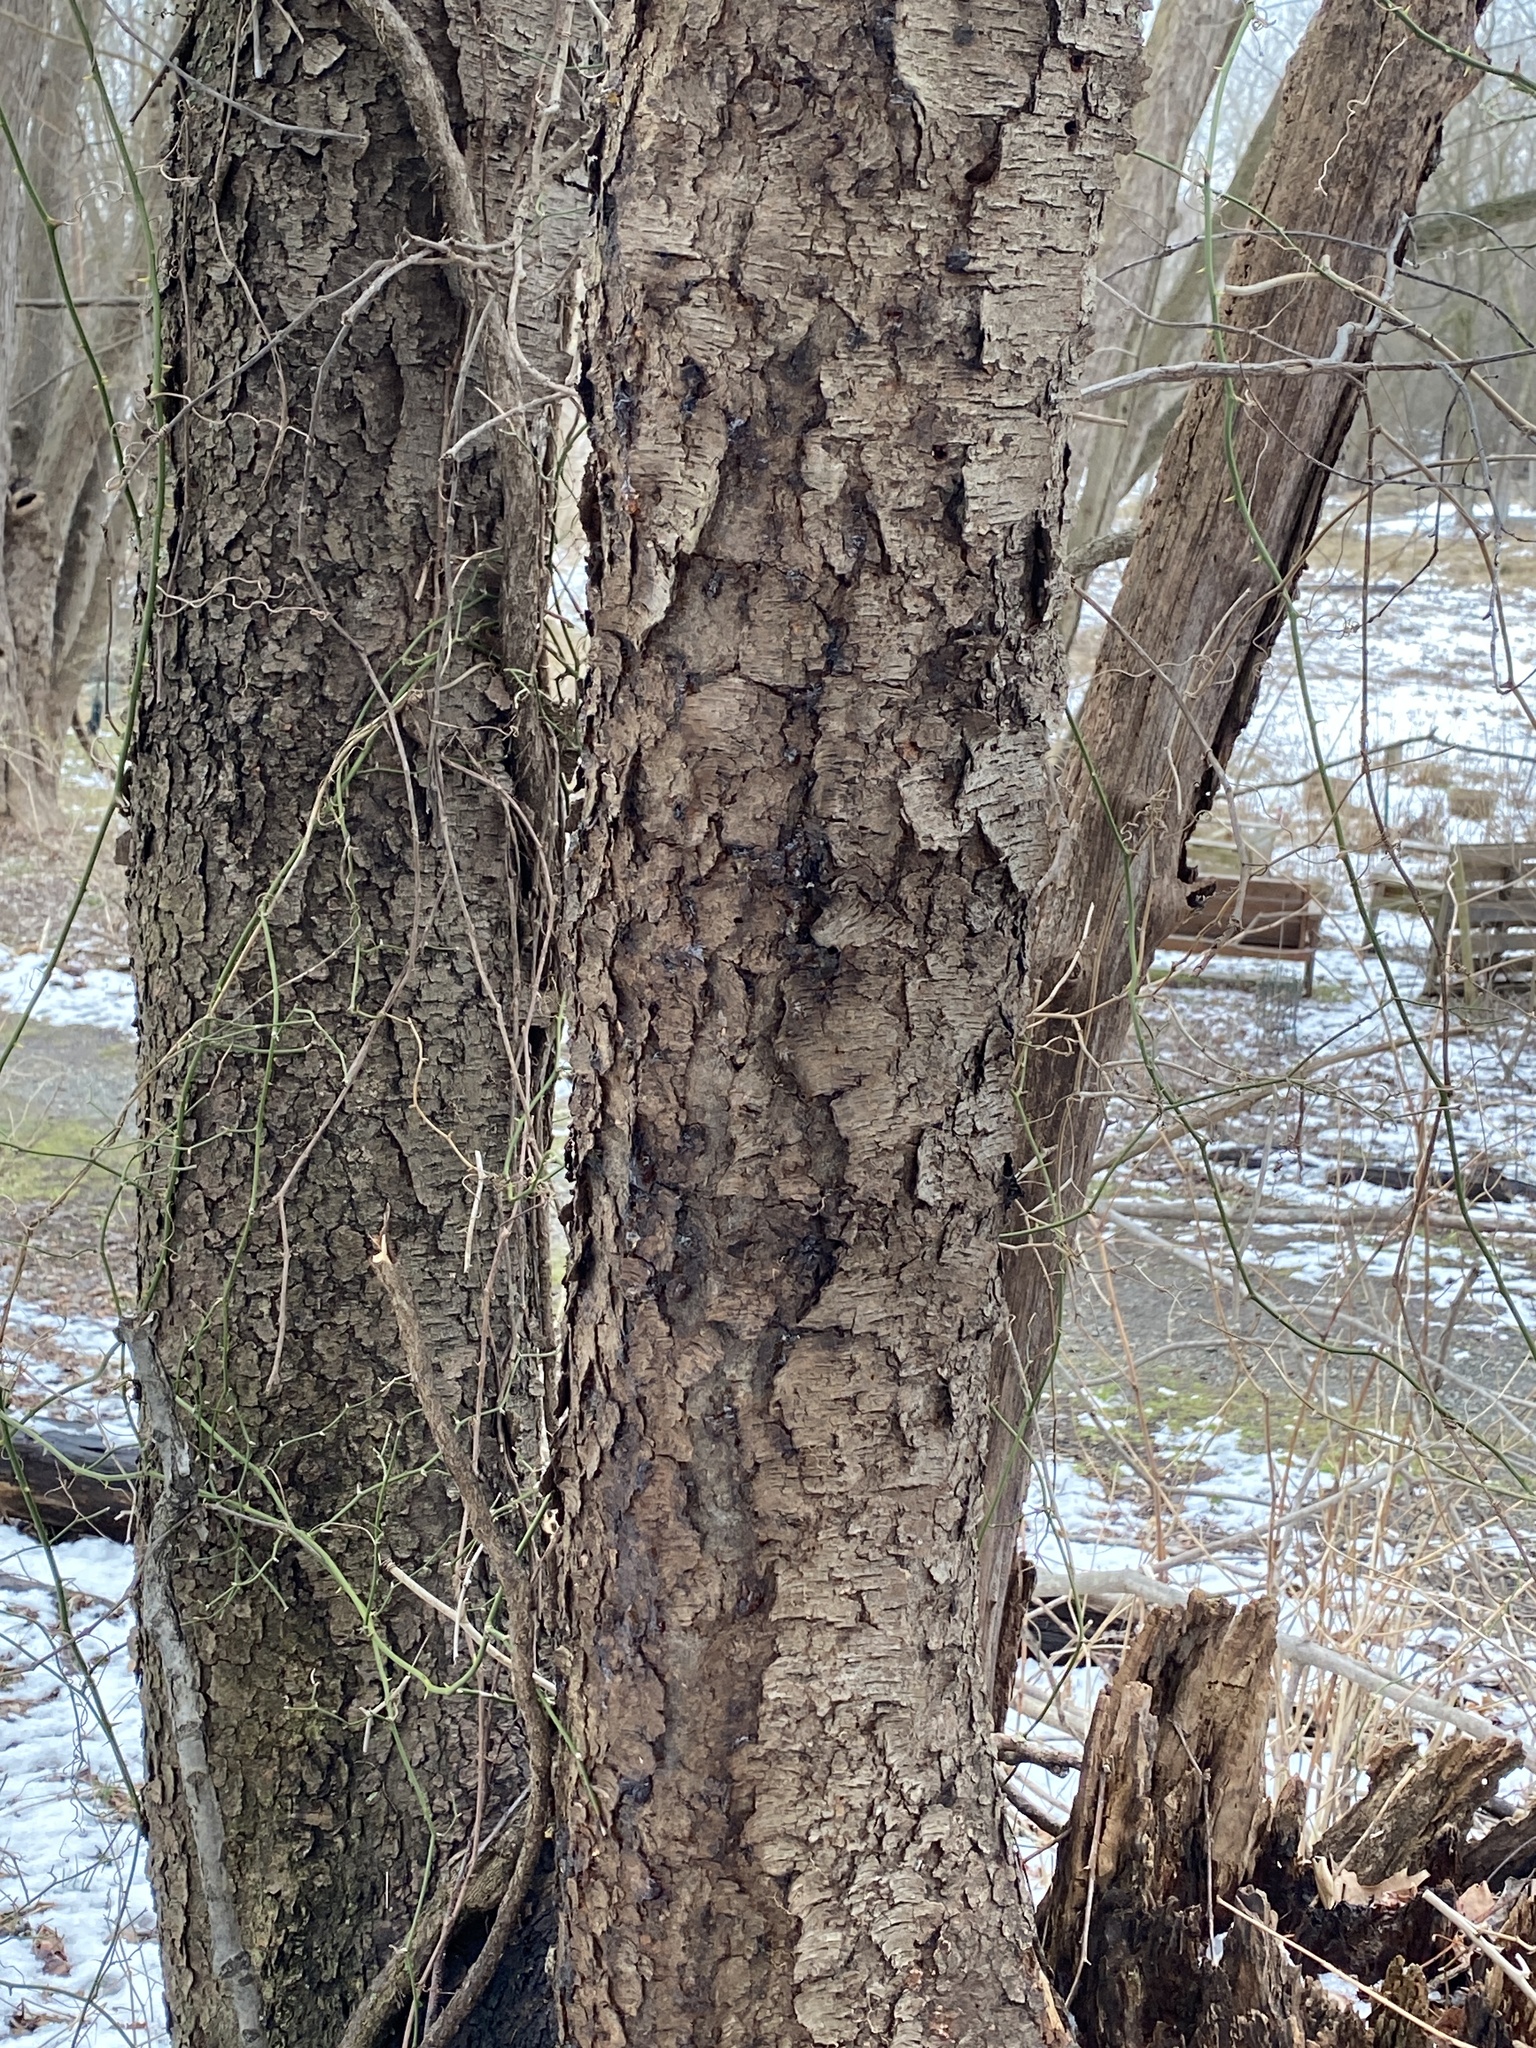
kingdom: Plantae
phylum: Tracheophyta
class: Magnoliopsida
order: Rosales
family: Rosaceae
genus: Prunus
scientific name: Prunus serotina
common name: Black cherry
